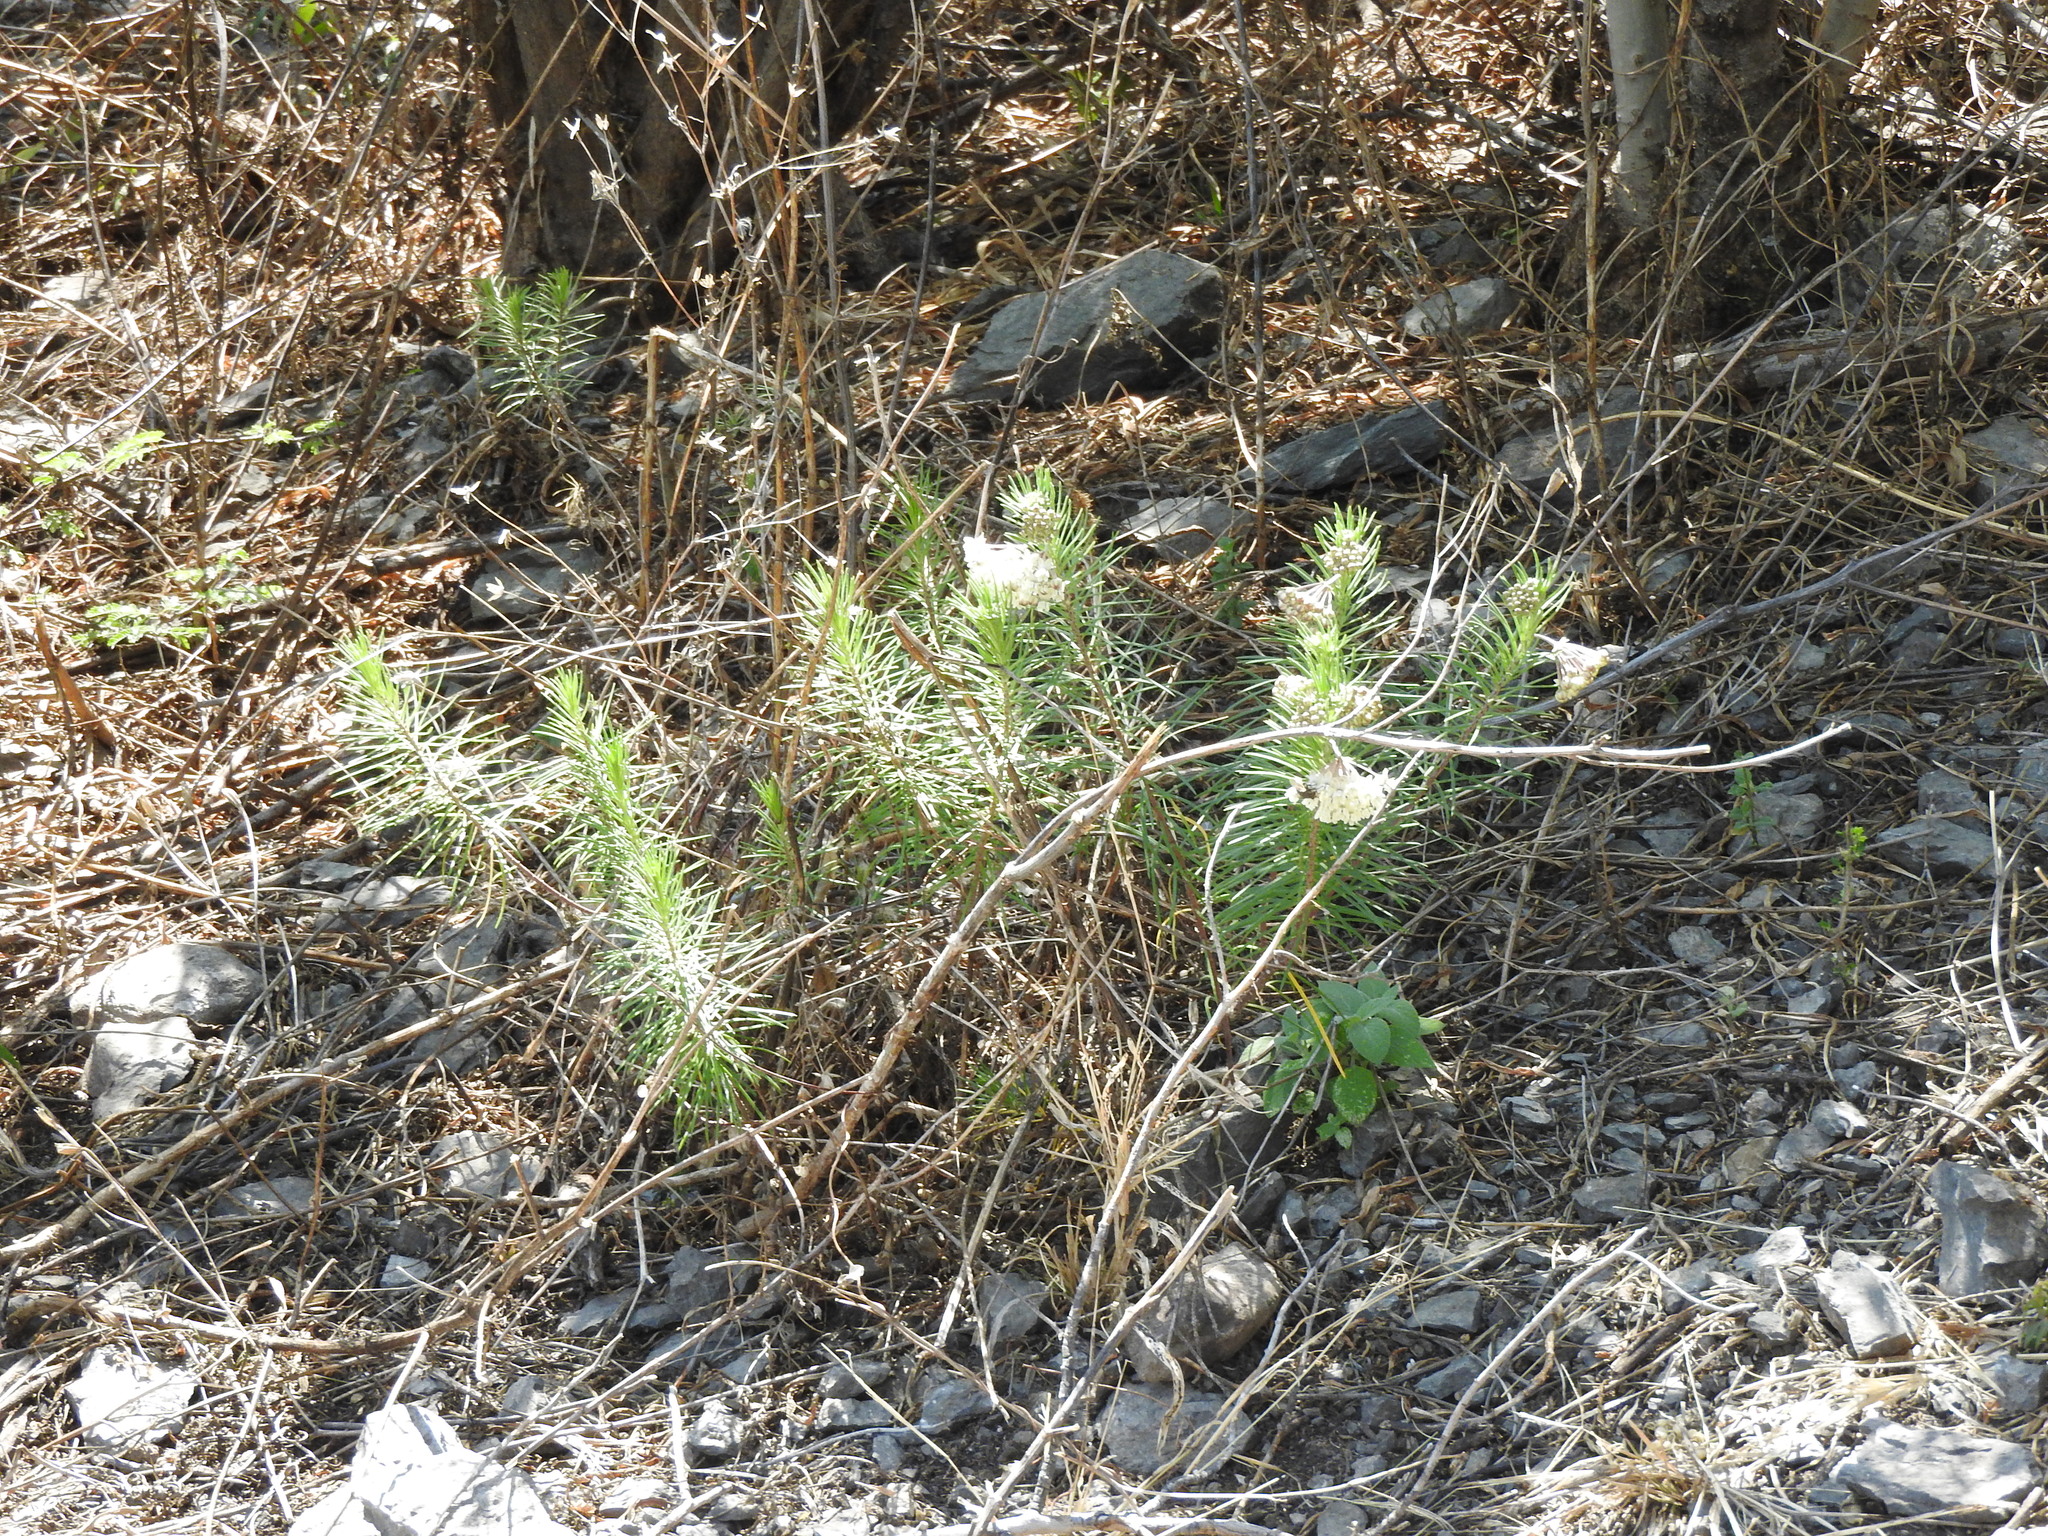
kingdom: Plantae
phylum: Tracheophyta
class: Magnoliopsida
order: Gentianales
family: Apocynaceae
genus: Asclepias
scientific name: Asclepias linaria
